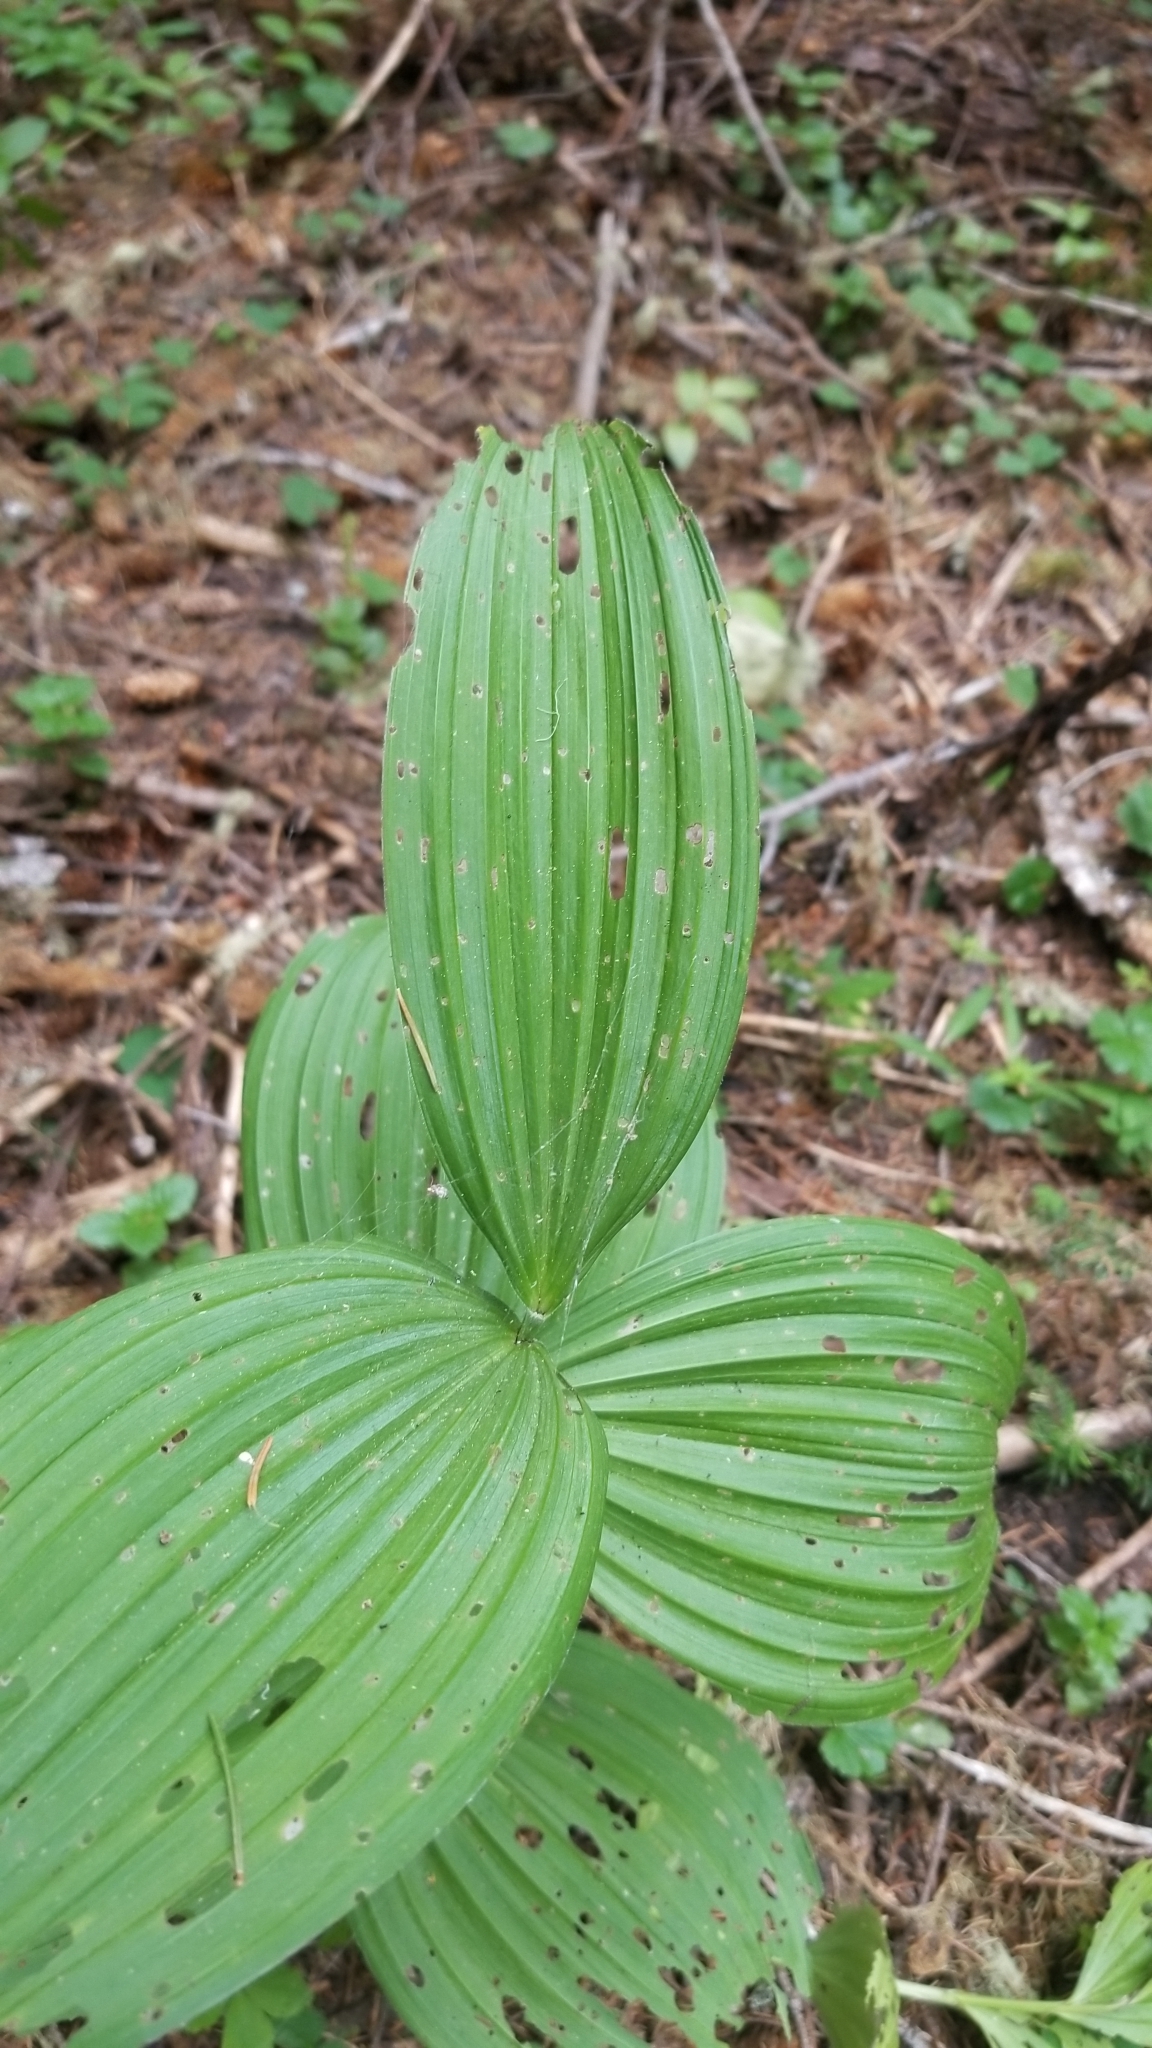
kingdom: Plantae
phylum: Tracheophyta
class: Liliopsida
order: Liliales
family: Melanthiaceae
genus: Veratrum
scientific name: Veratrum viride
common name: American false hellebore
